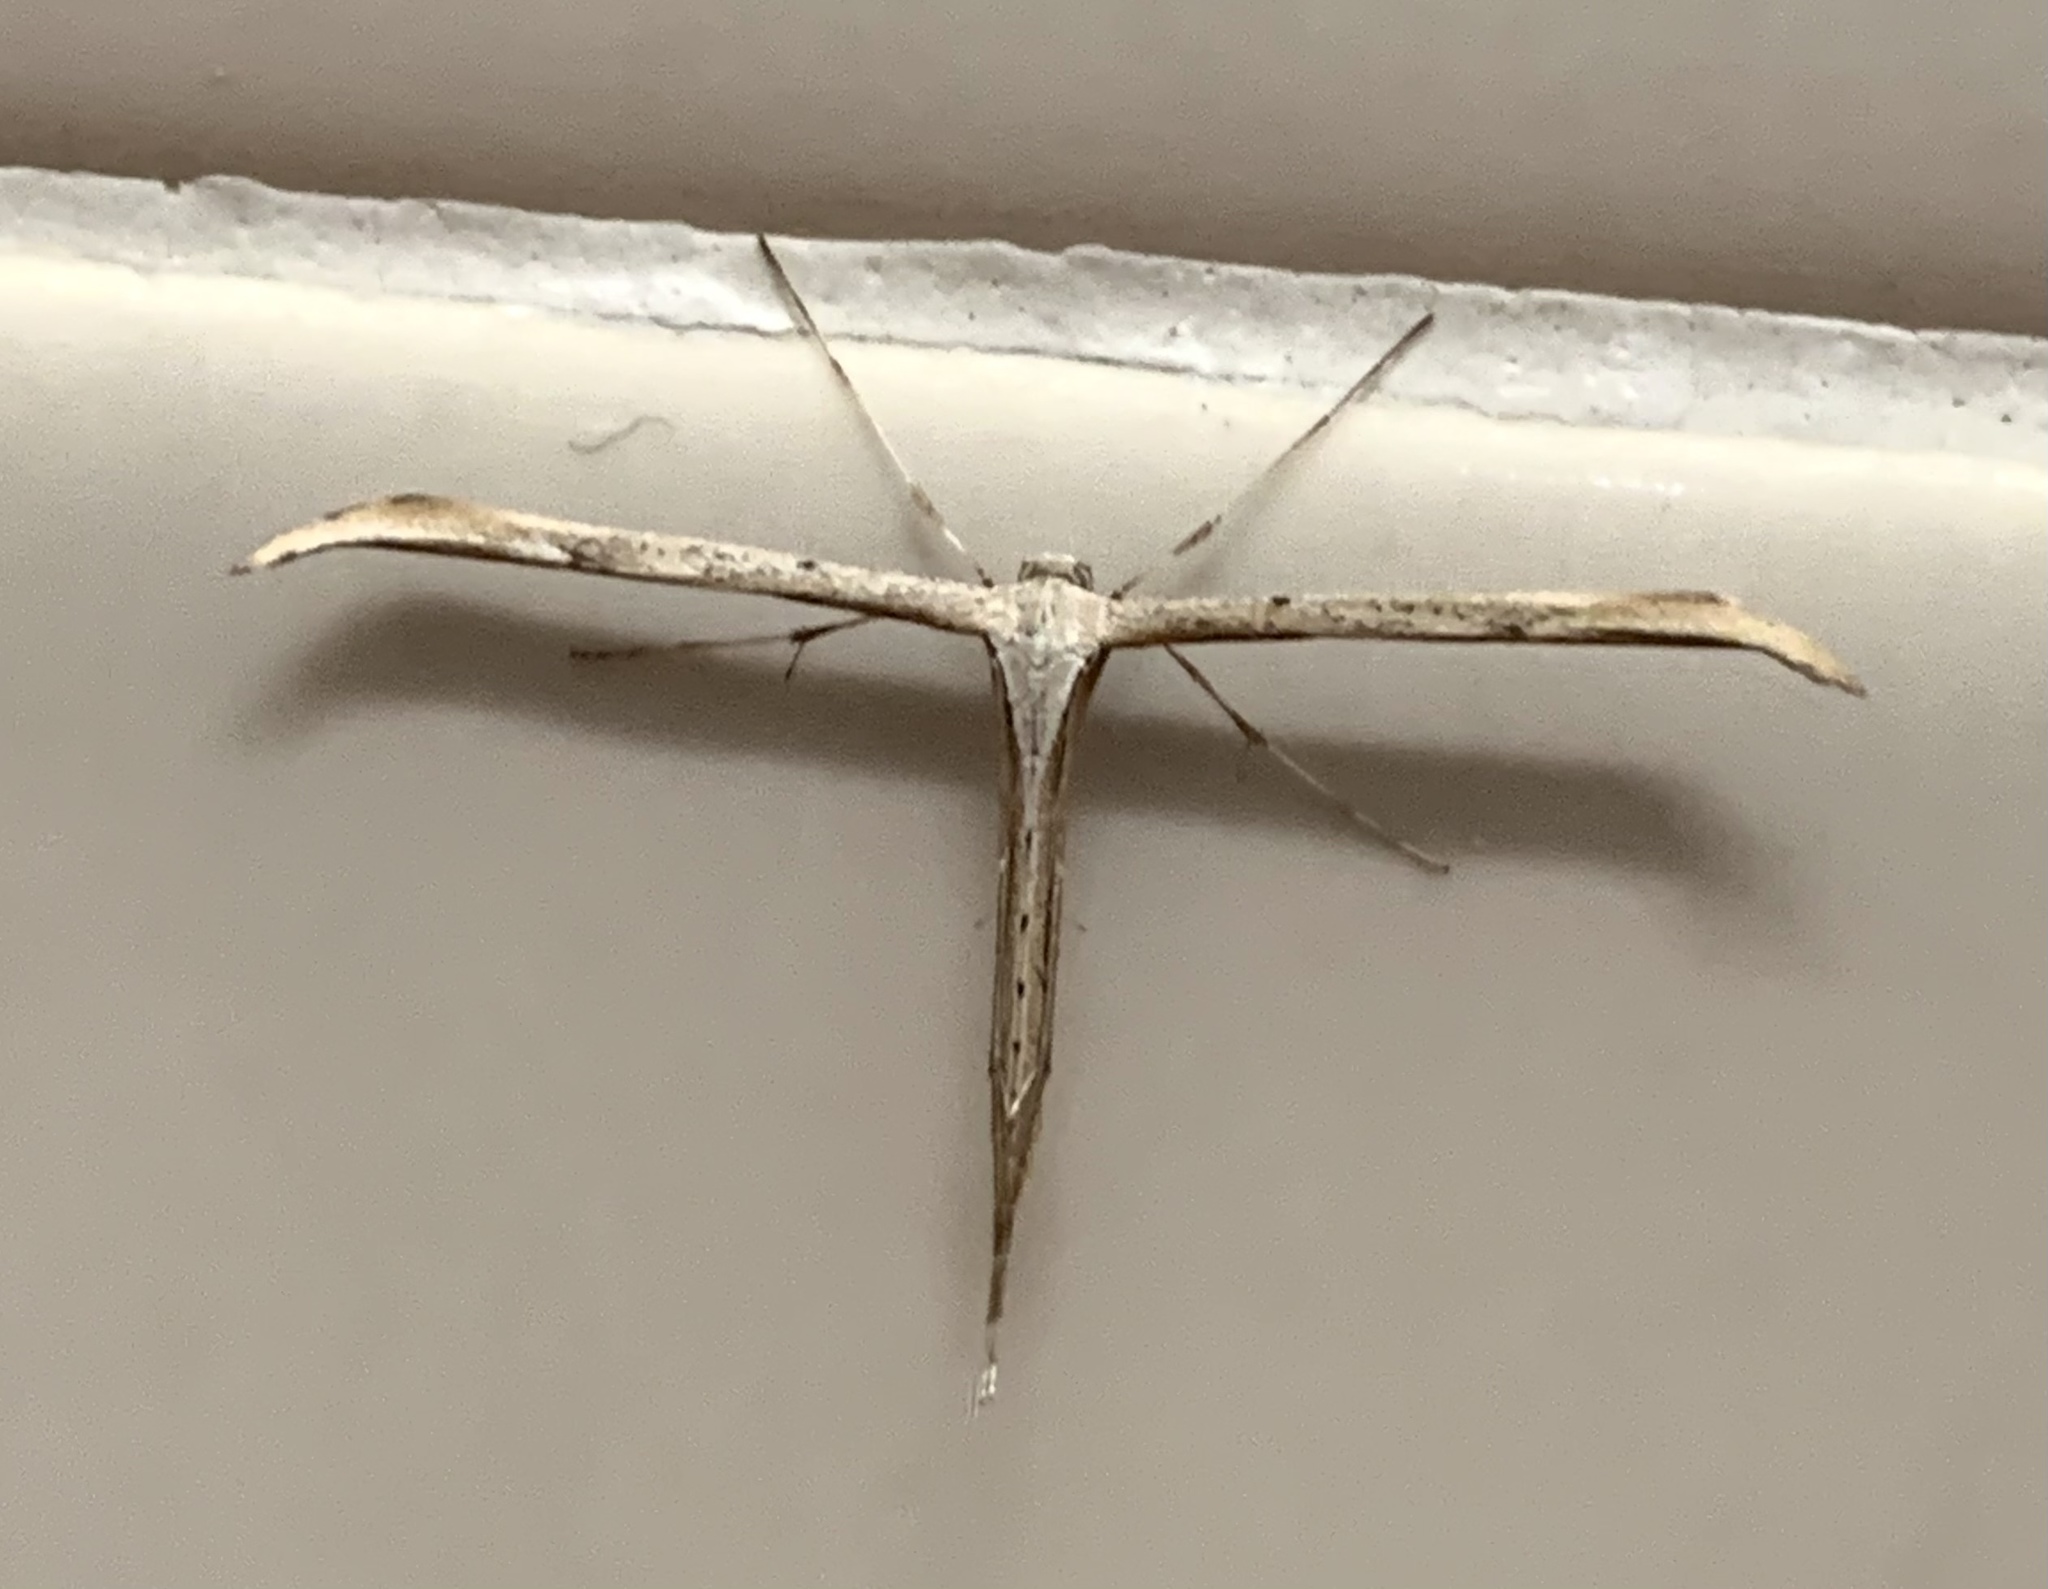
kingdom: Animalia
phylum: Arthropoda
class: Insecta
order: Lepidoptera
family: Pterophoridae
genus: Emmelina
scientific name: Emmelina monodactyla
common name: Common plume
